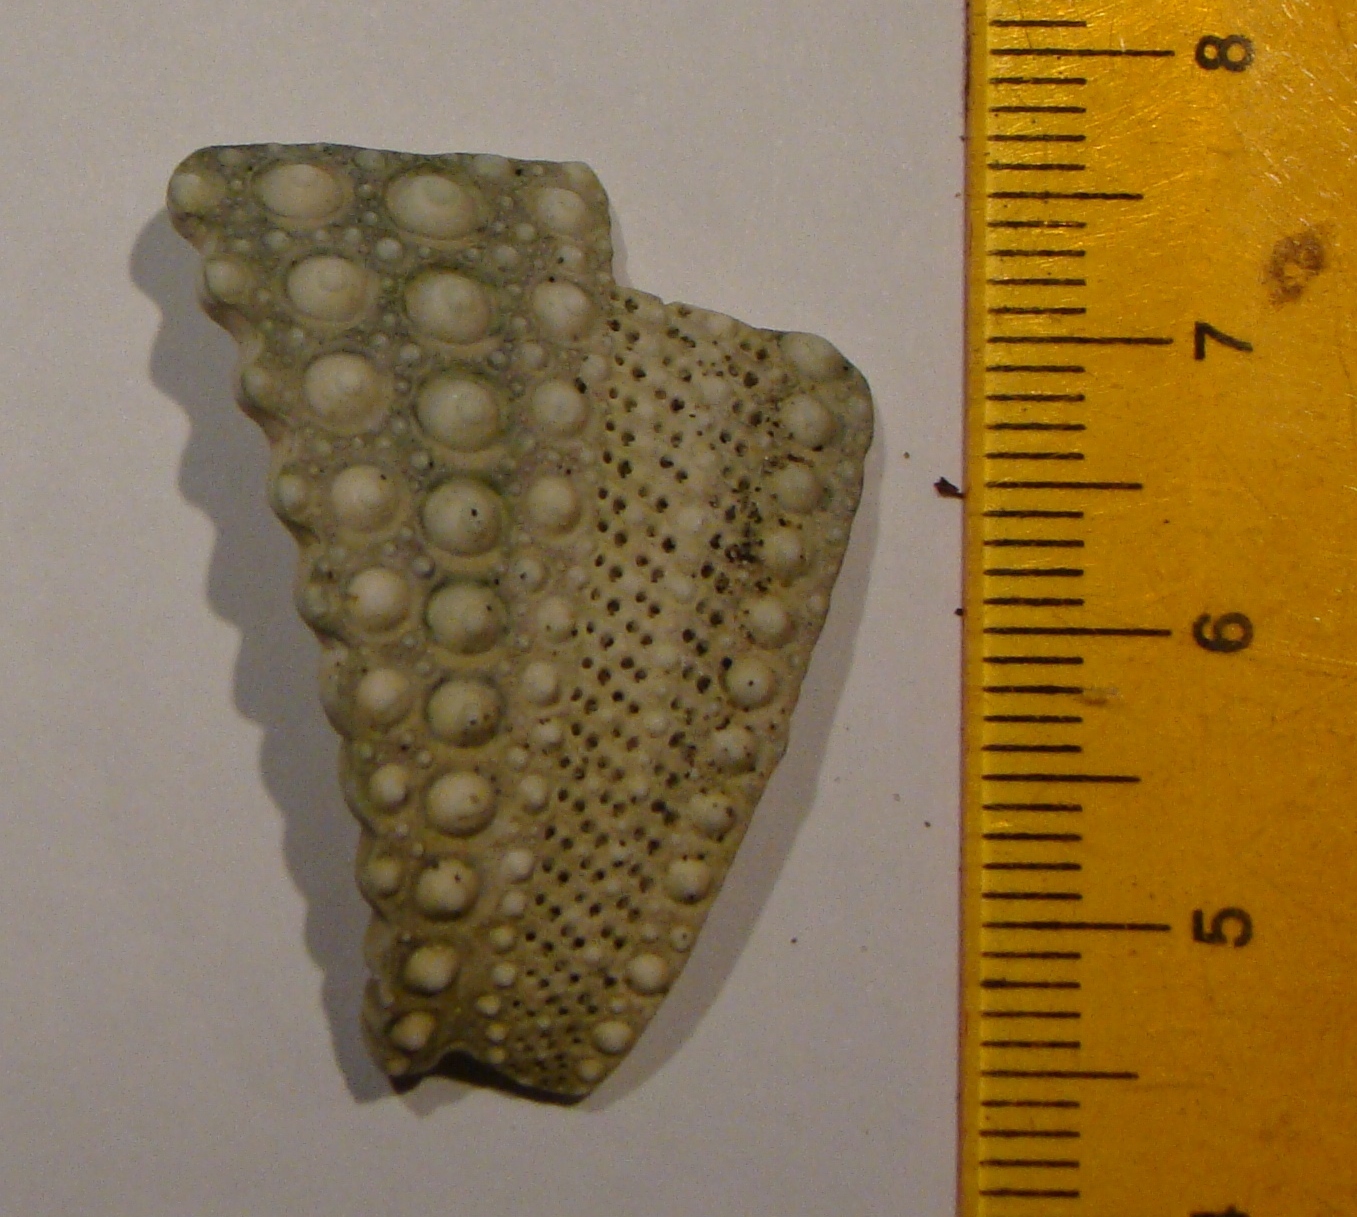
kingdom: Animalia
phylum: Echinodermata
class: Echinoidea
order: Camarodonta
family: Echinometridae
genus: Evechinus
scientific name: Evechinus chloroticus
